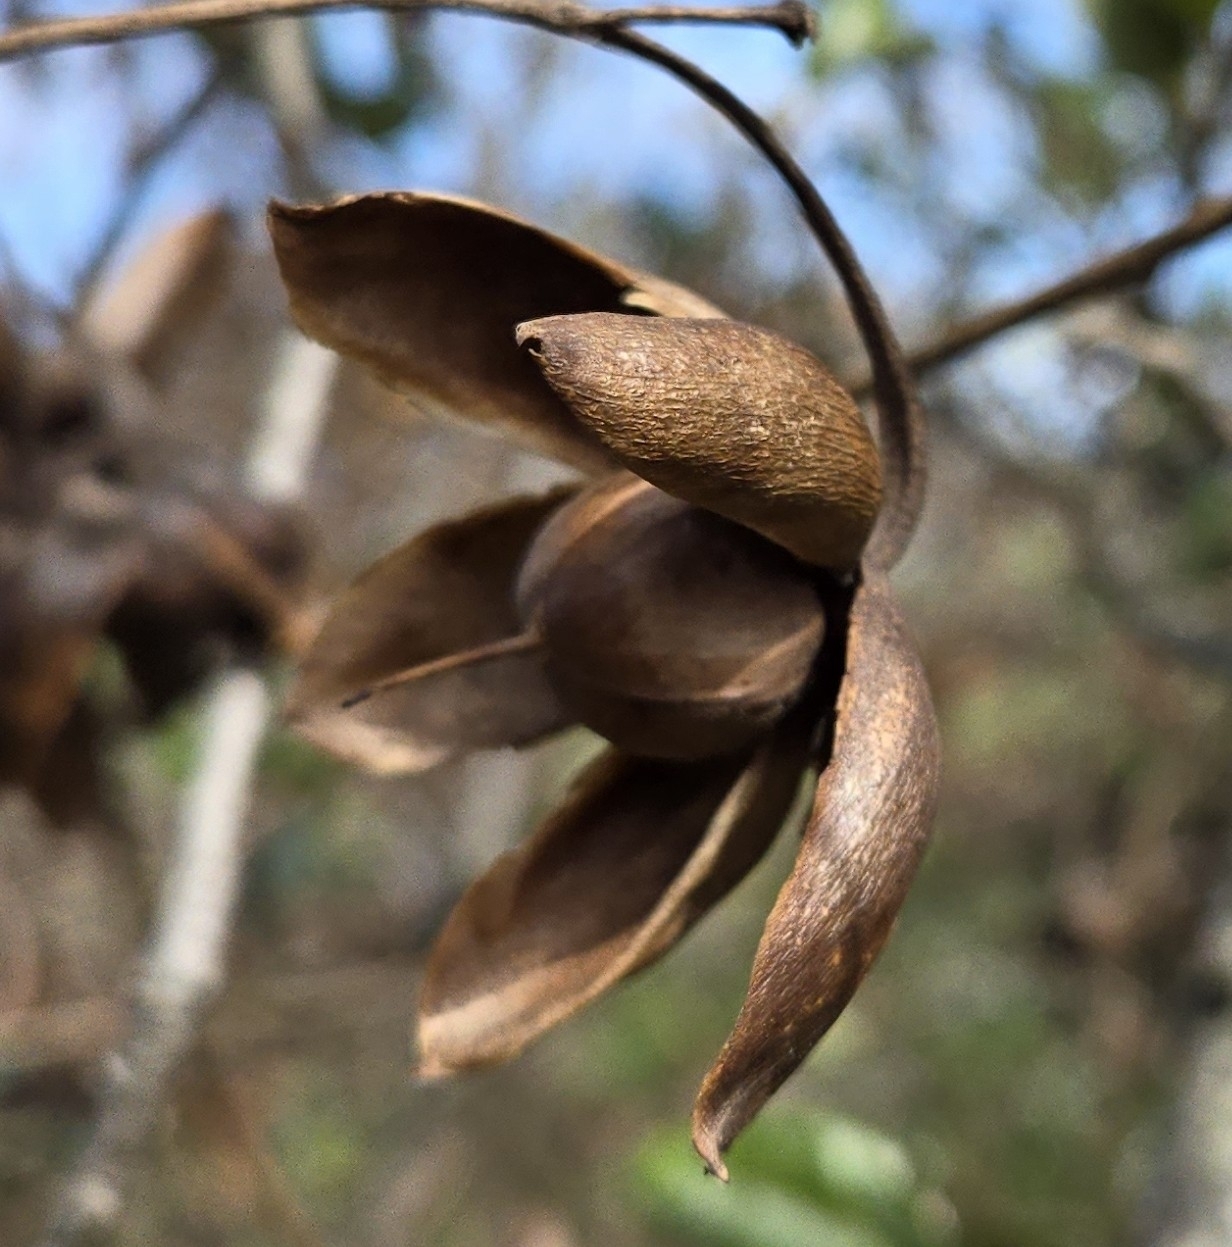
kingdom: Plantae
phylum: Tracheophyta
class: Magnoliopsida
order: Solanales
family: Convolvulaceae
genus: Distimake
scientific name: Distimake dissectus
